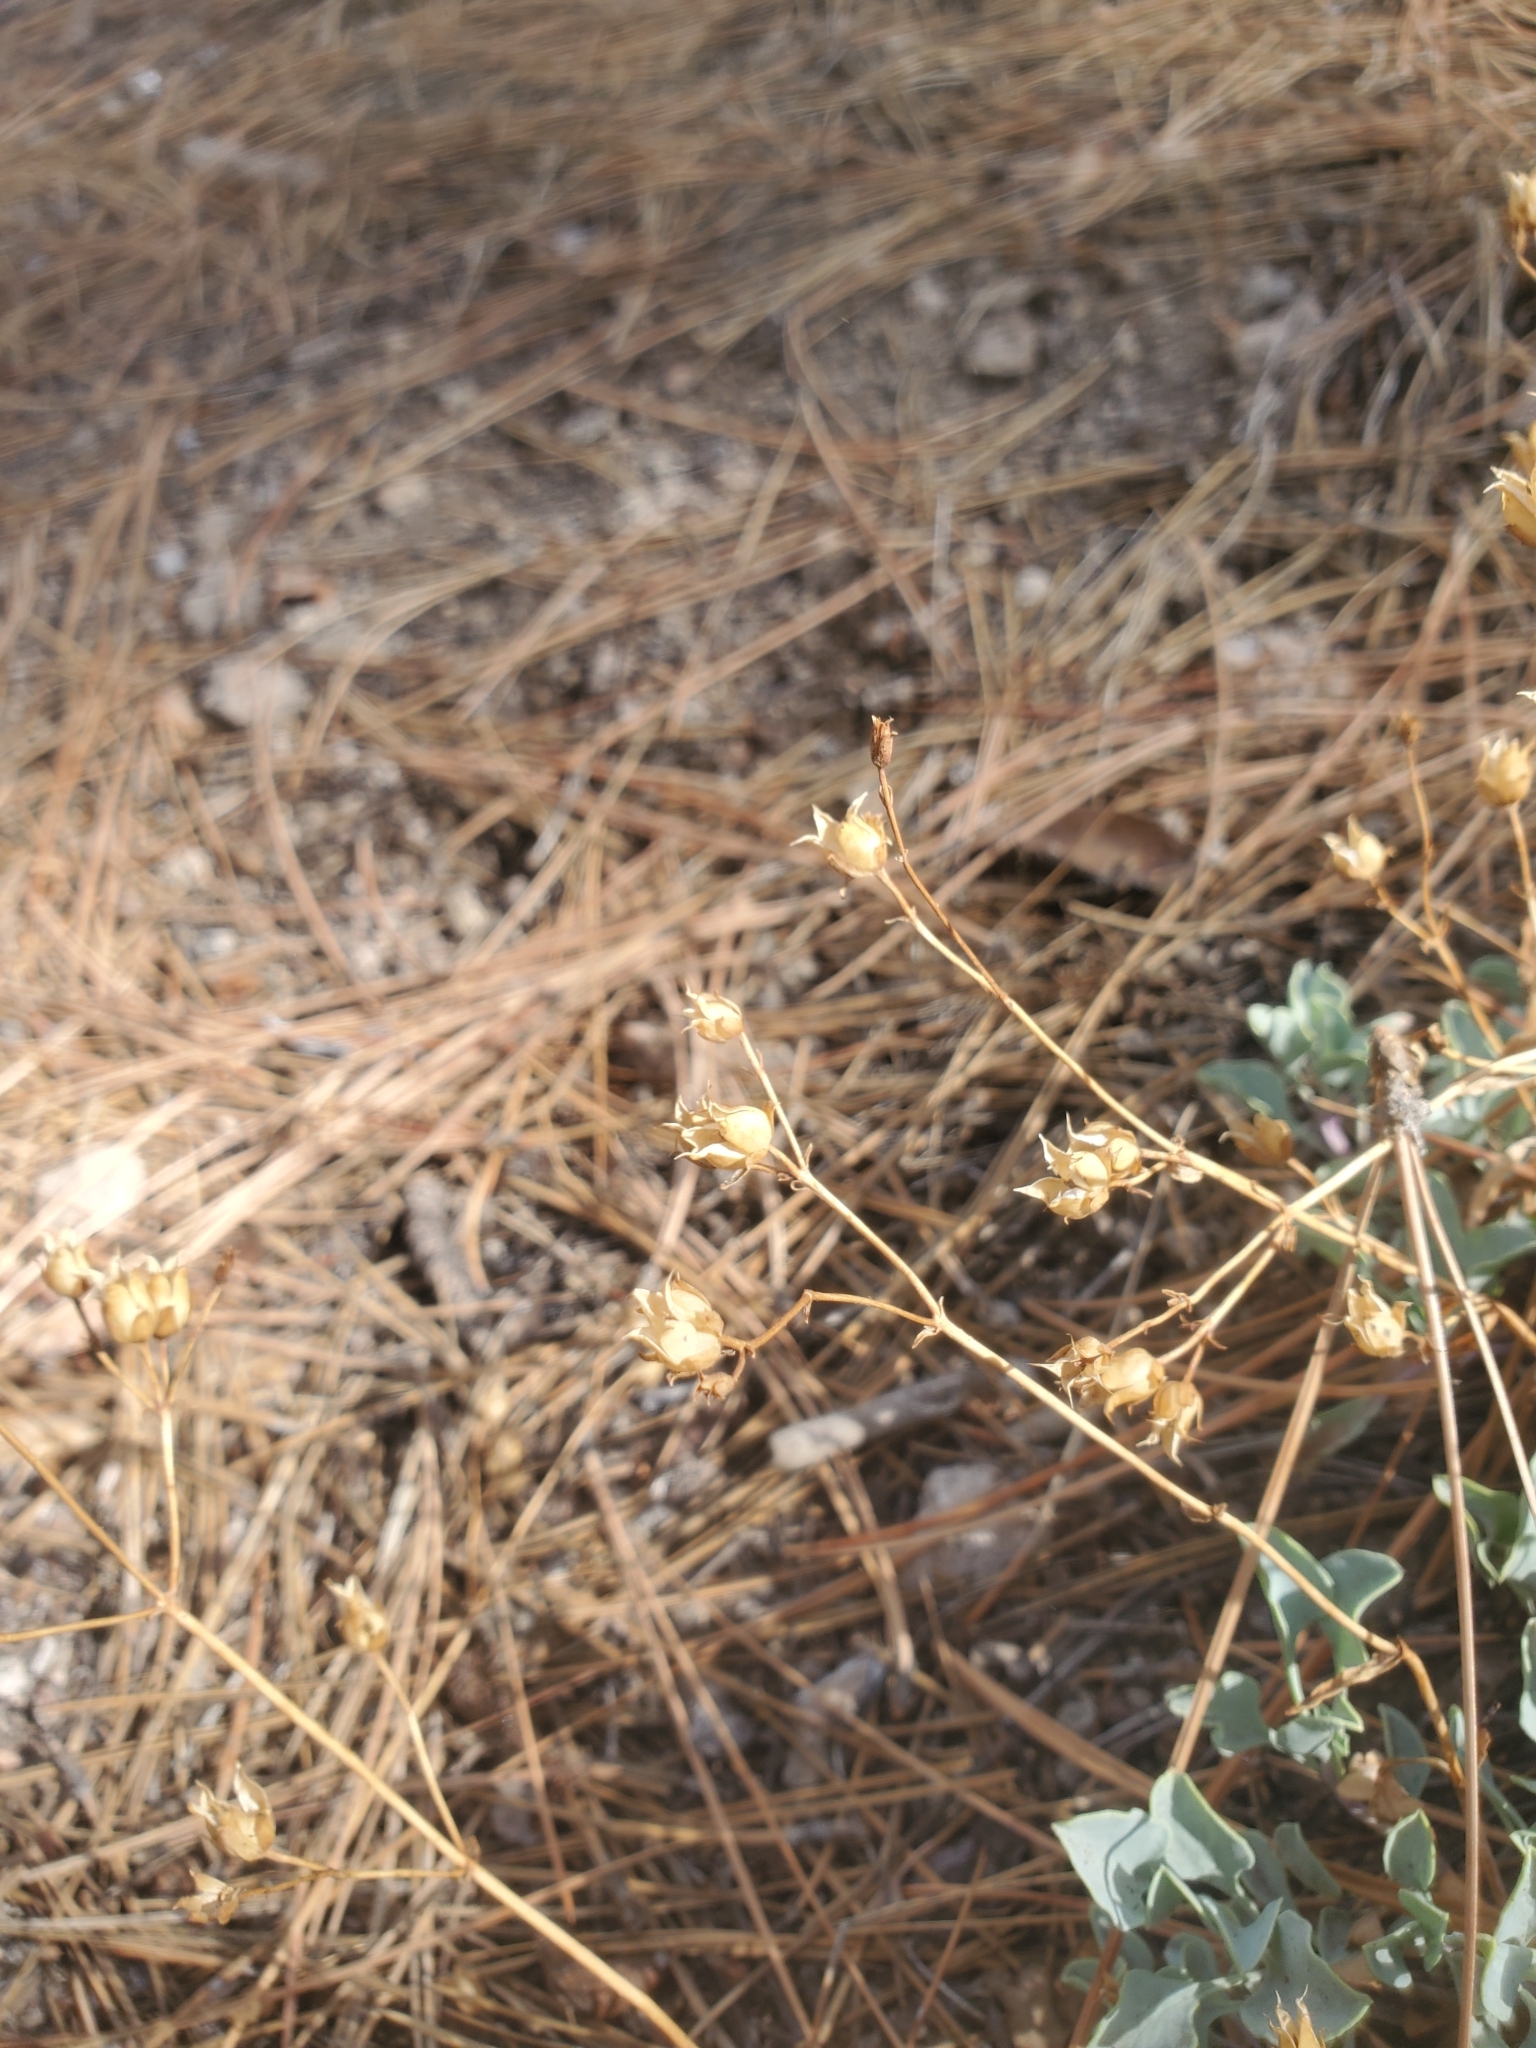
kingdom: Plantae
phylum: Tracheophyta
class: Magnoliopsida
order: Lamiales
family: Plantaginaceae
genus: Penstemon
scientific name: Penstemon caesius
